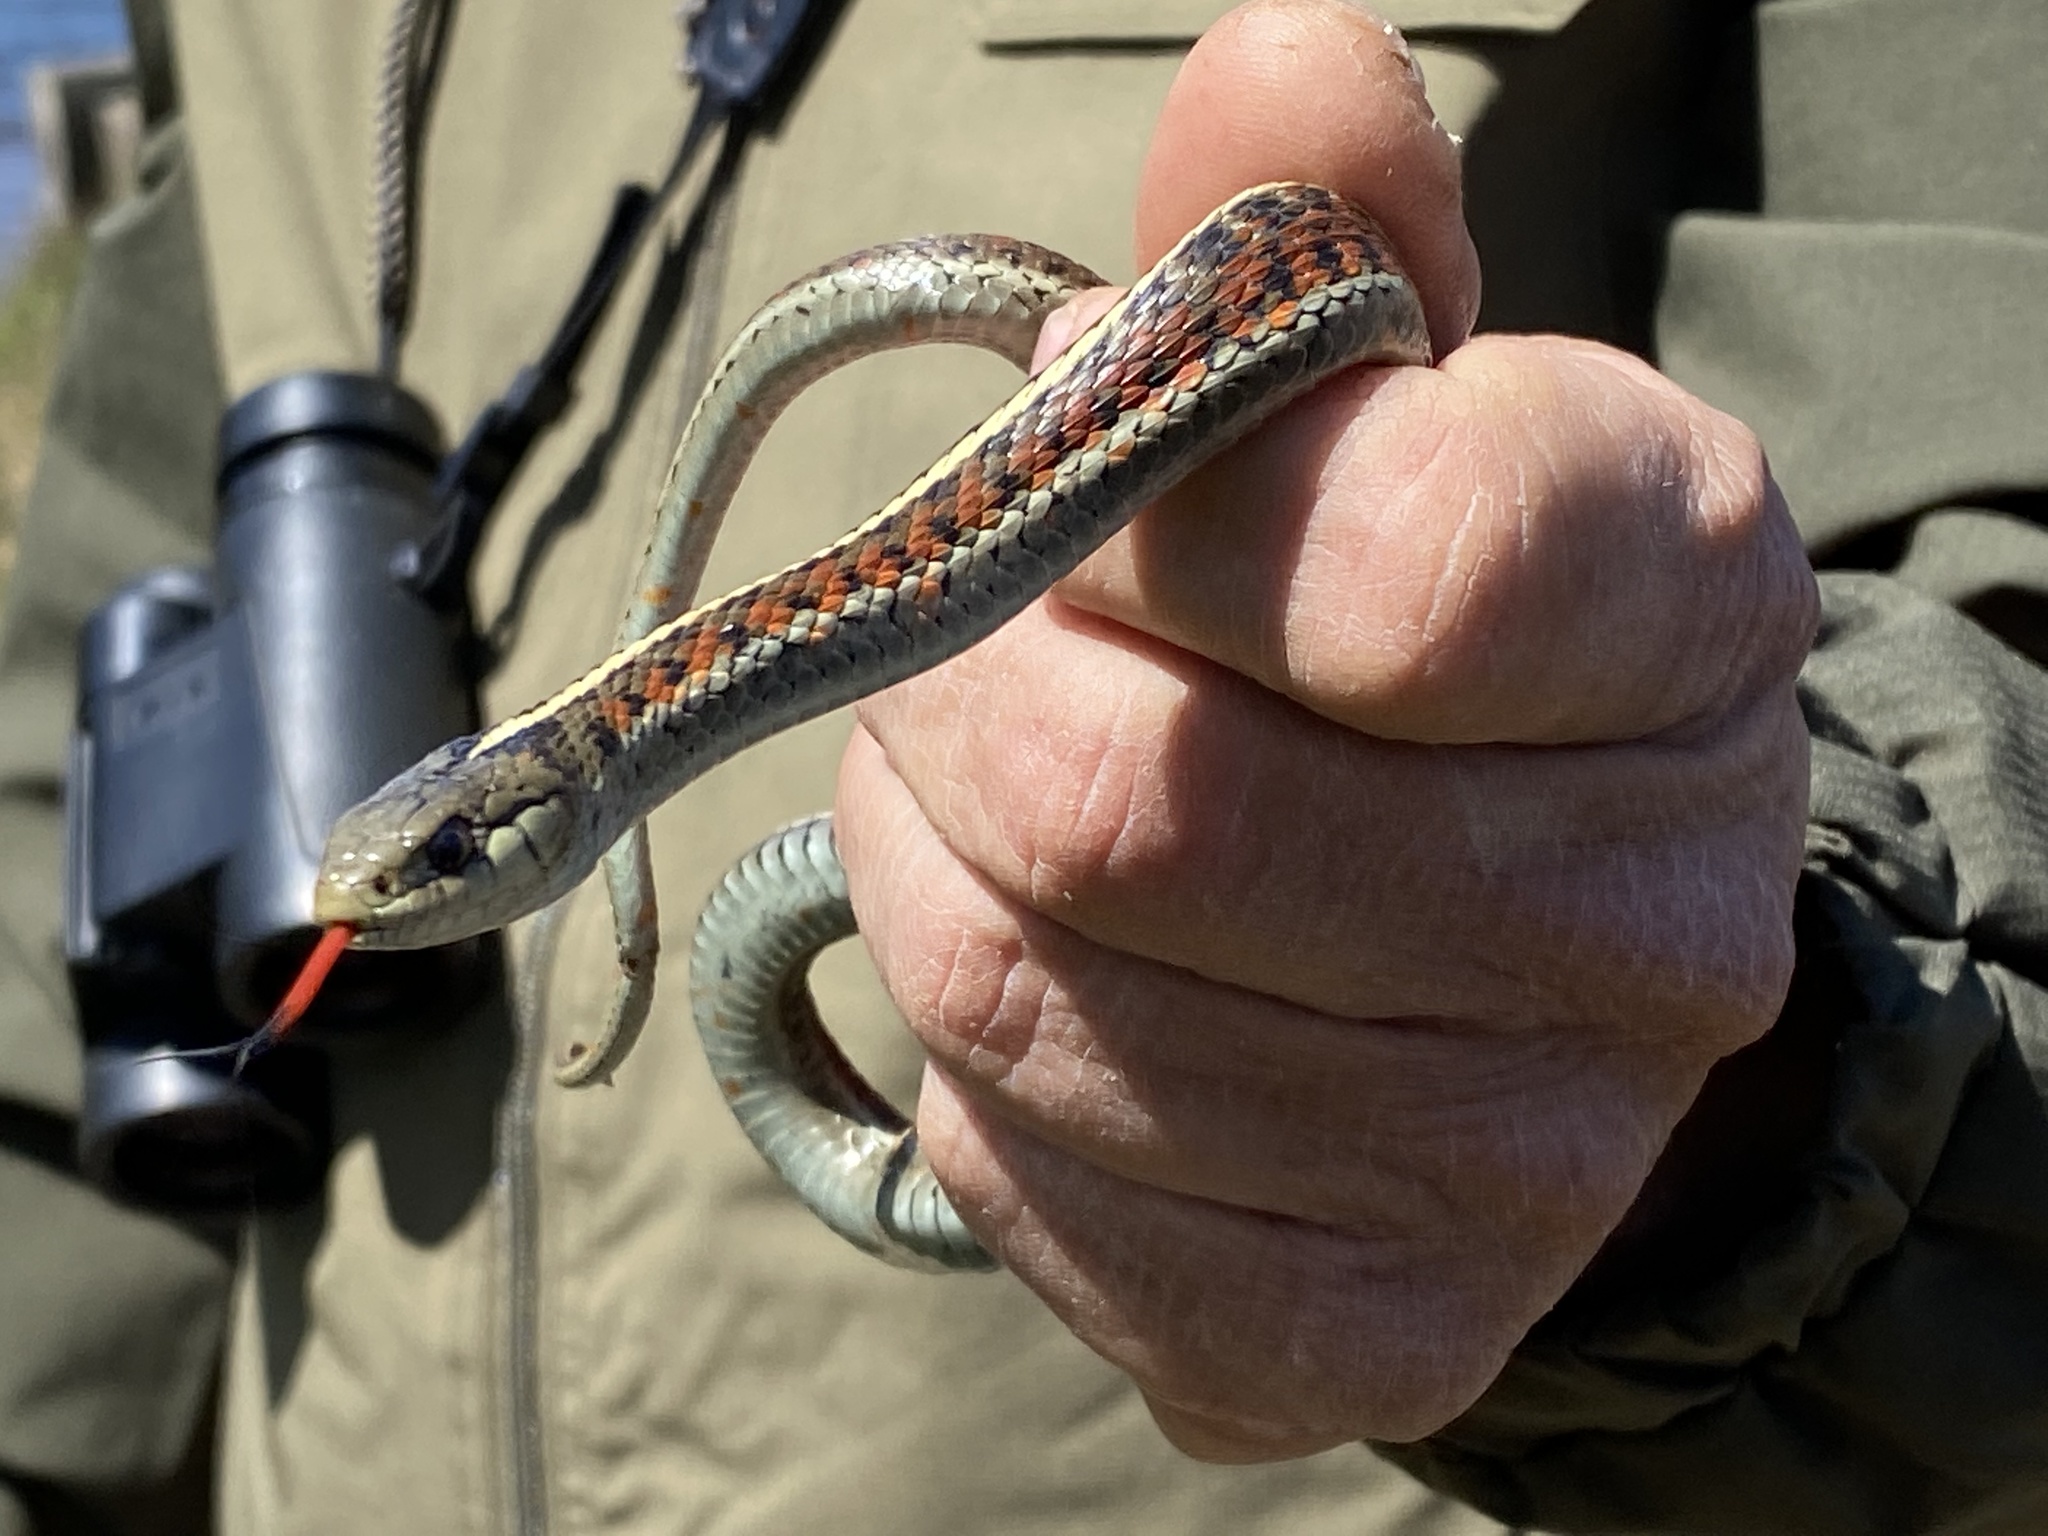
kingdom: Animalia
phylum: Chordata
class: Squamata
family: Colubridae
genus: Thamnophis
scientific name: Thamnophis elegans
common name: Western terrestrial garter snake
